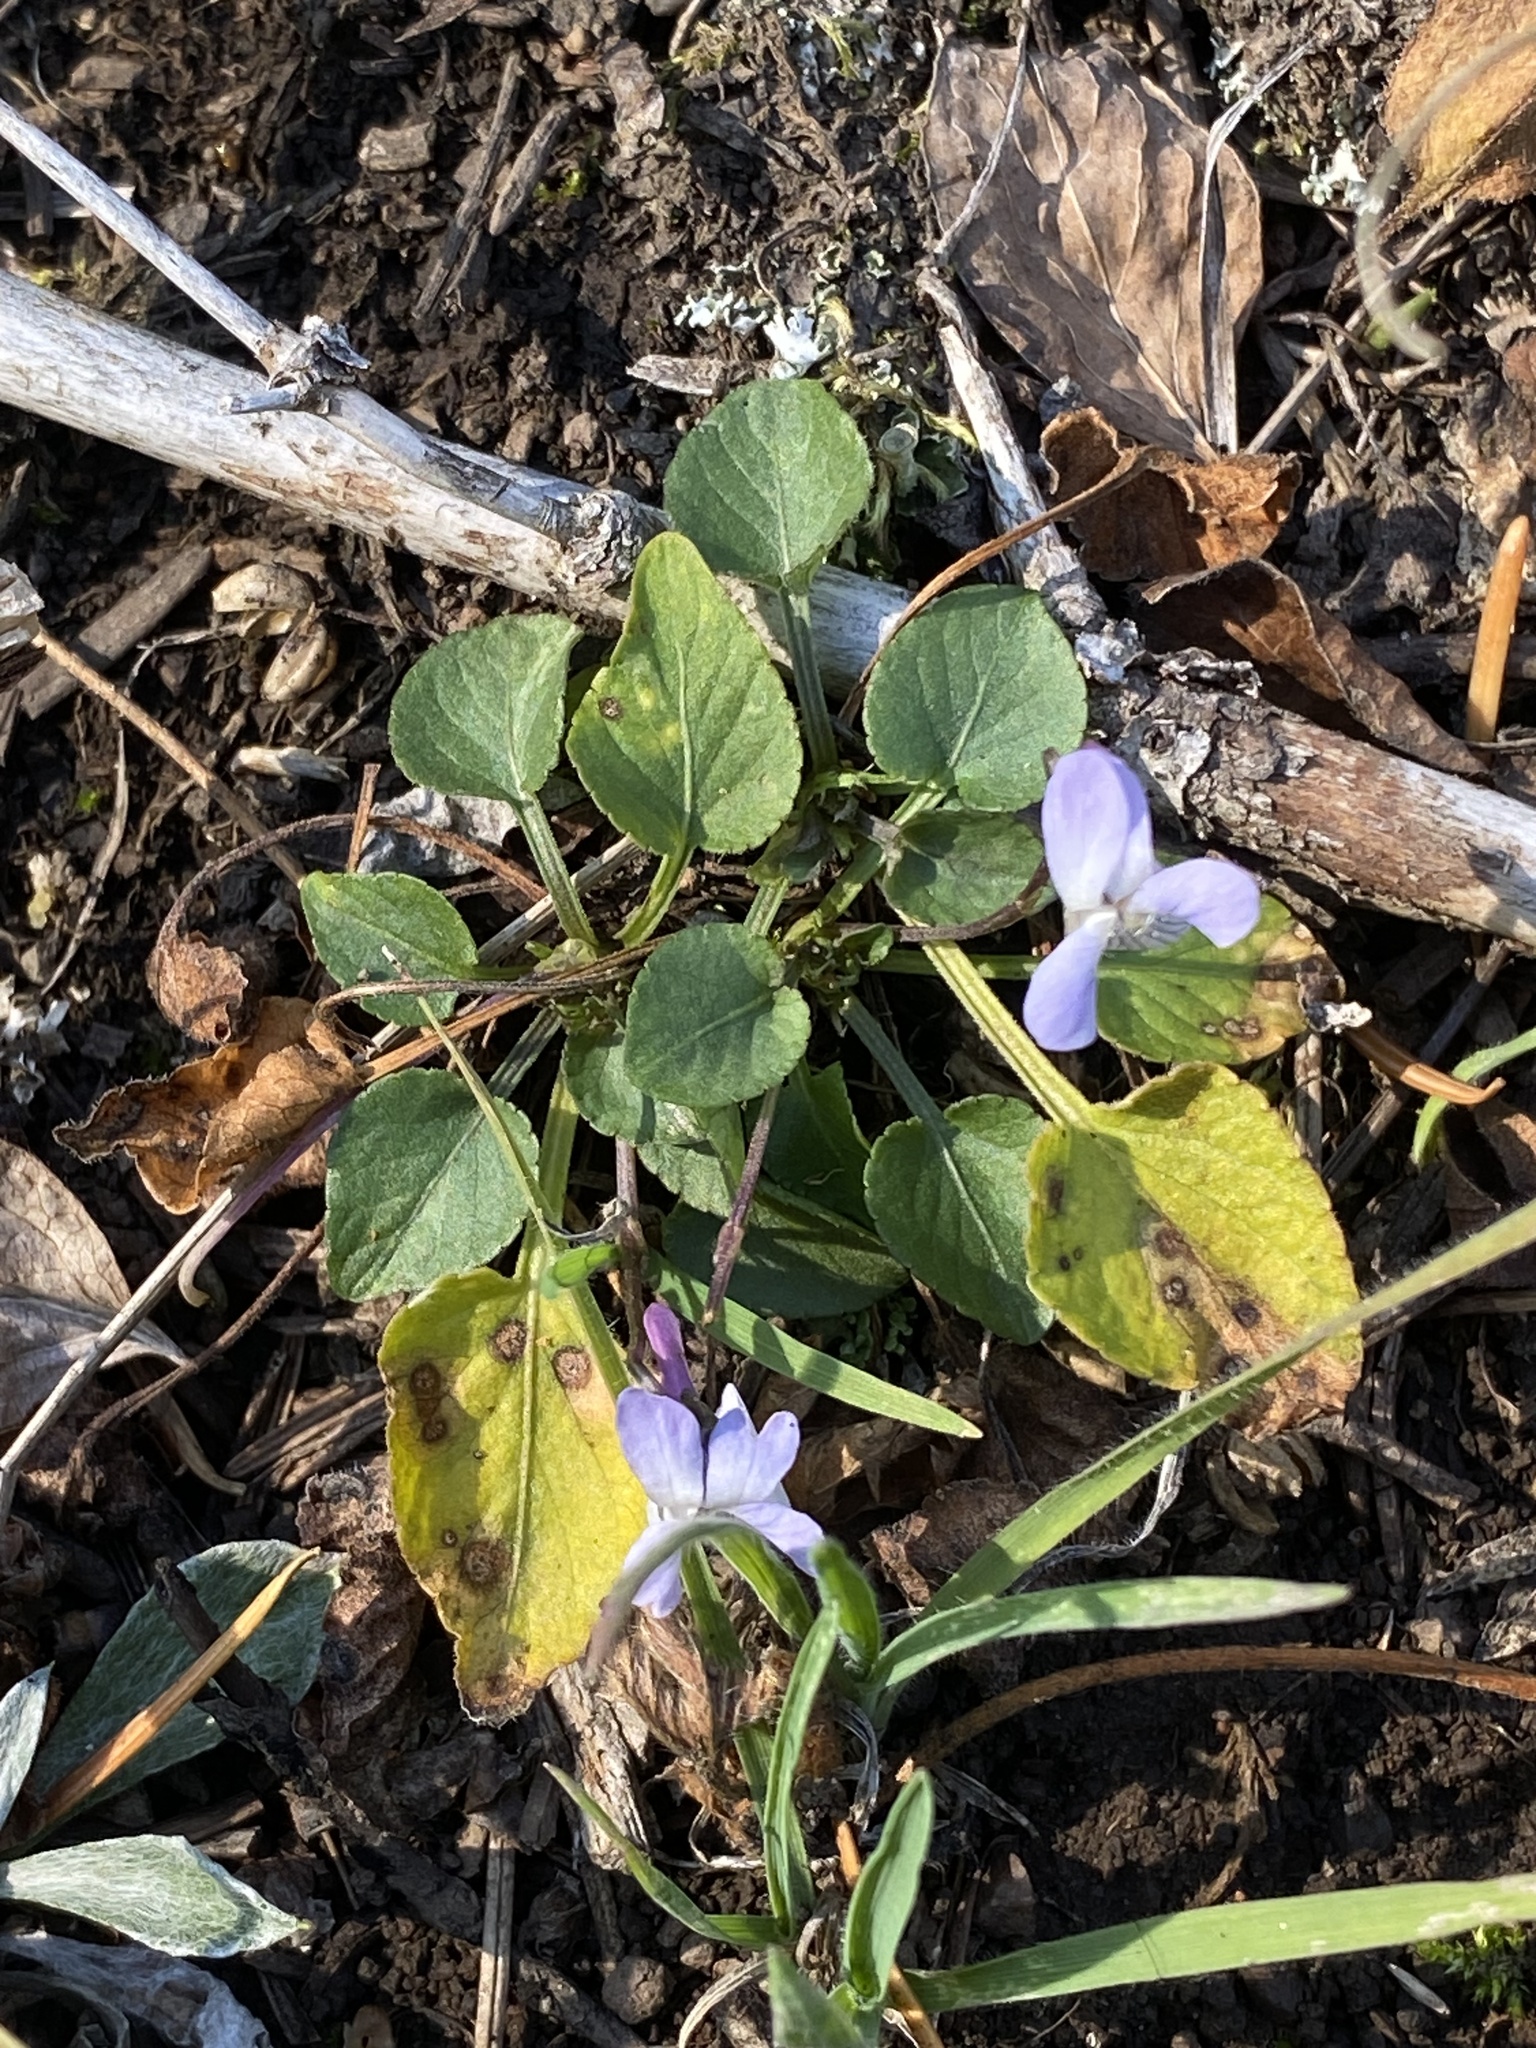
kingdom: Plantae
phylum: Tracheophyta
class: Magnoliopsida
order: Malpighiales
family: Violaceae
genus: Viola
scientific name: Viola adunca
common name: Sand violet
